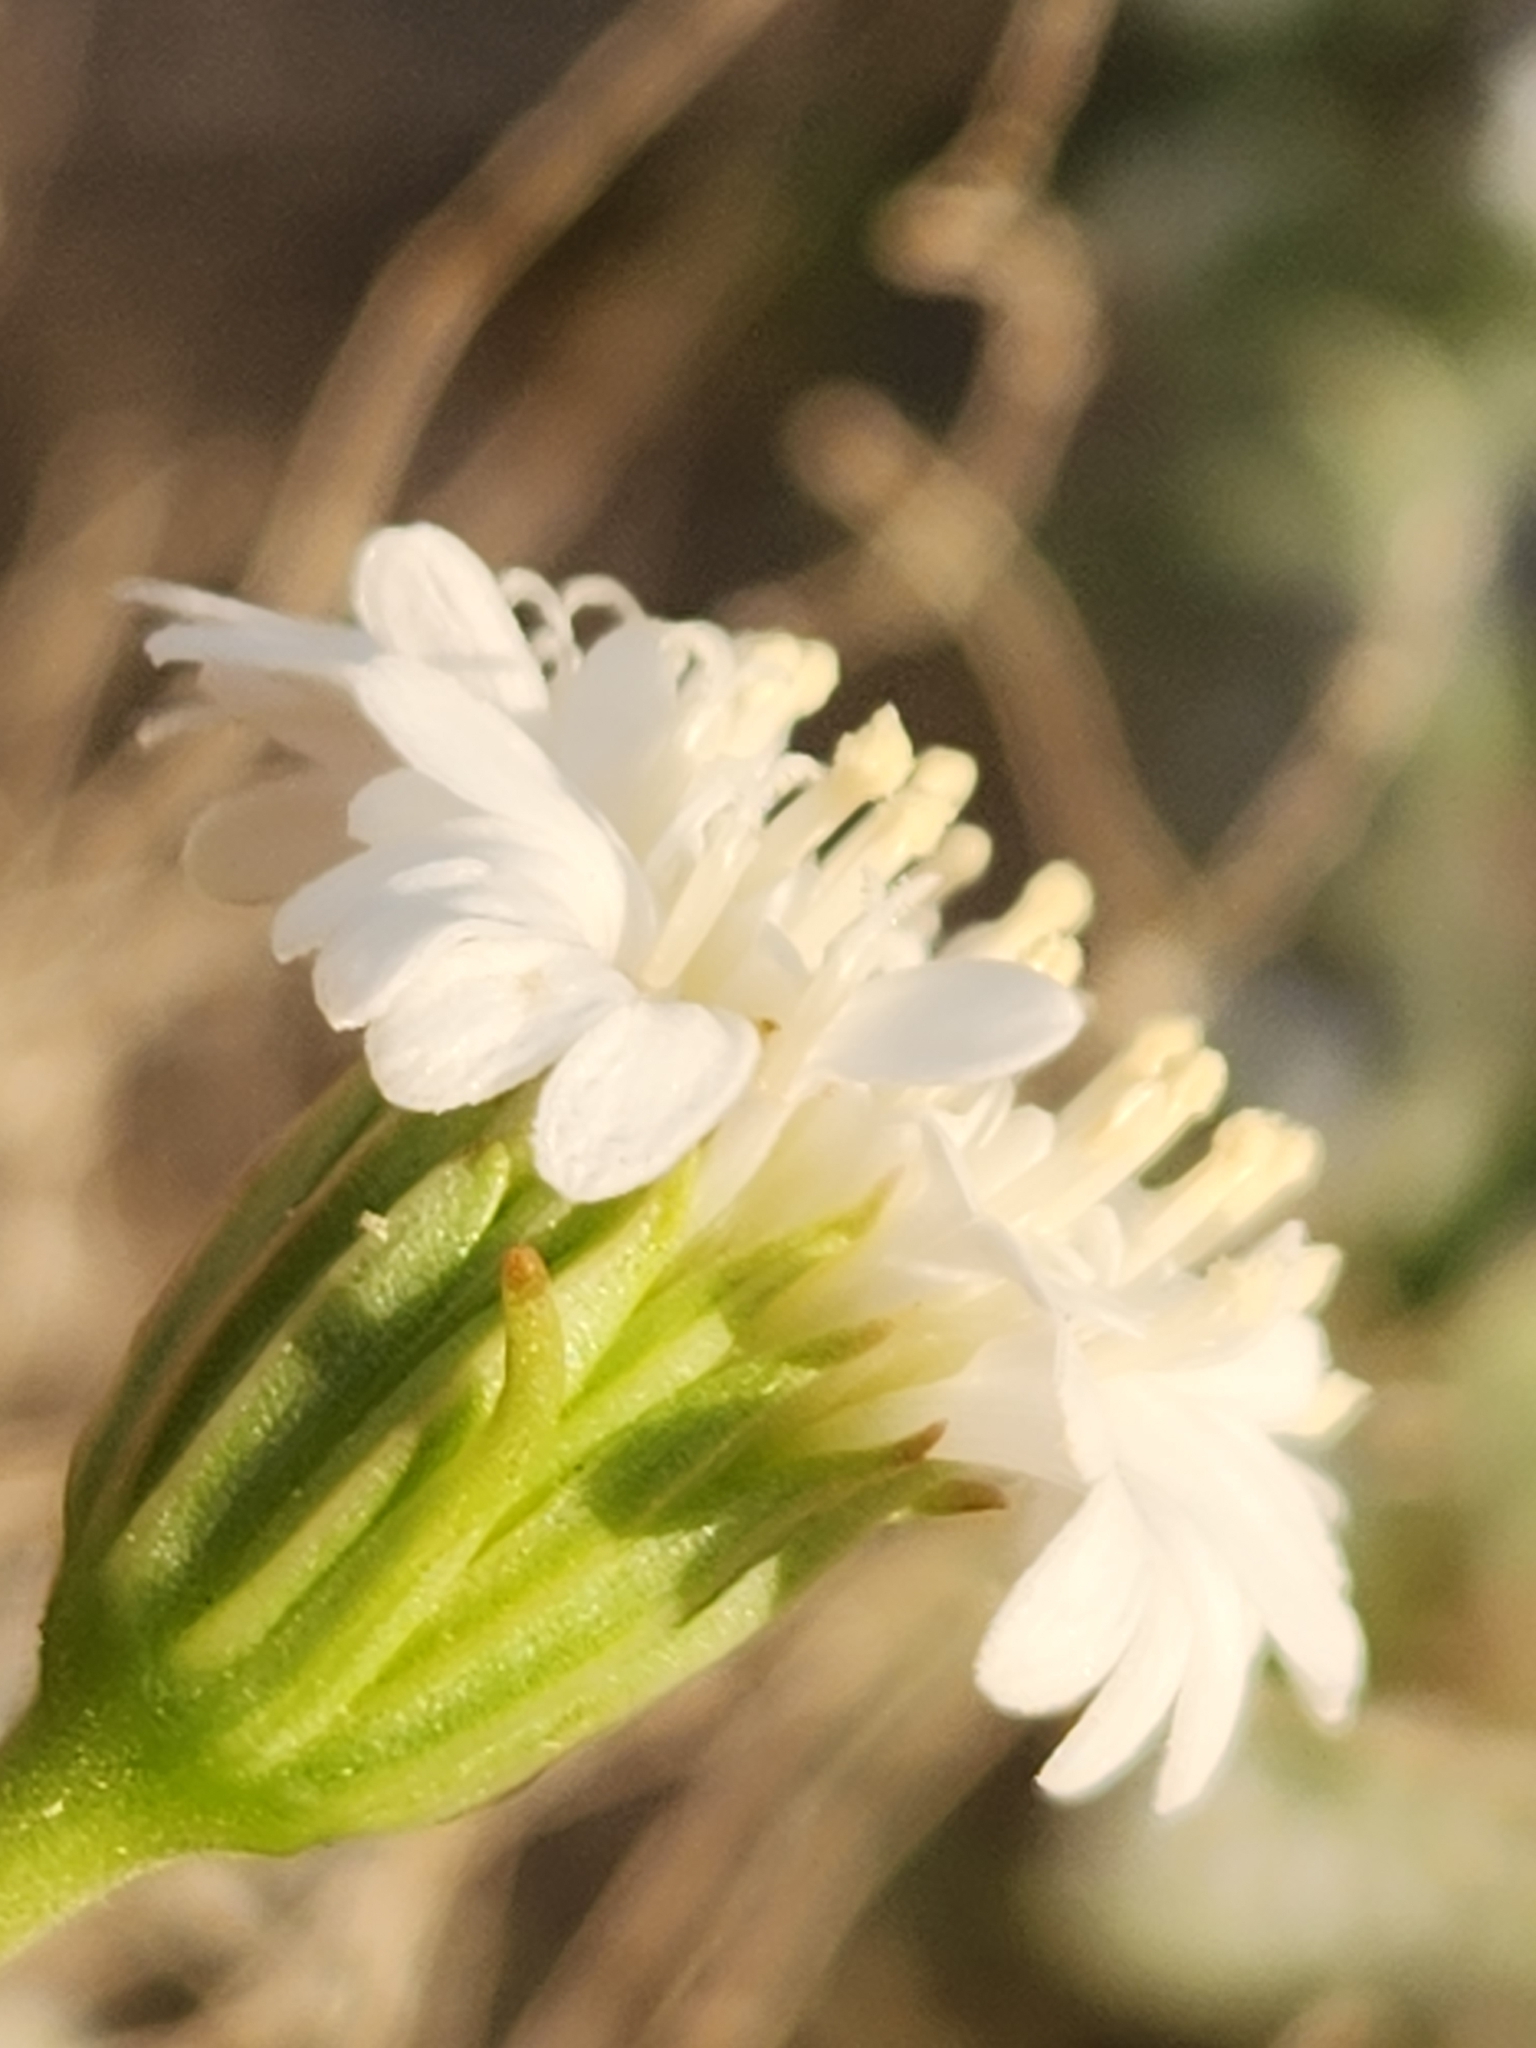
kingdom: Plantae
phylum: Tracheophyta
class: Magnoliopsida
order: Asterales
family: Asteraceae
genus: Chaenactis
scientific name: Chaenactis fremontii
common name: Fremont pincushion
